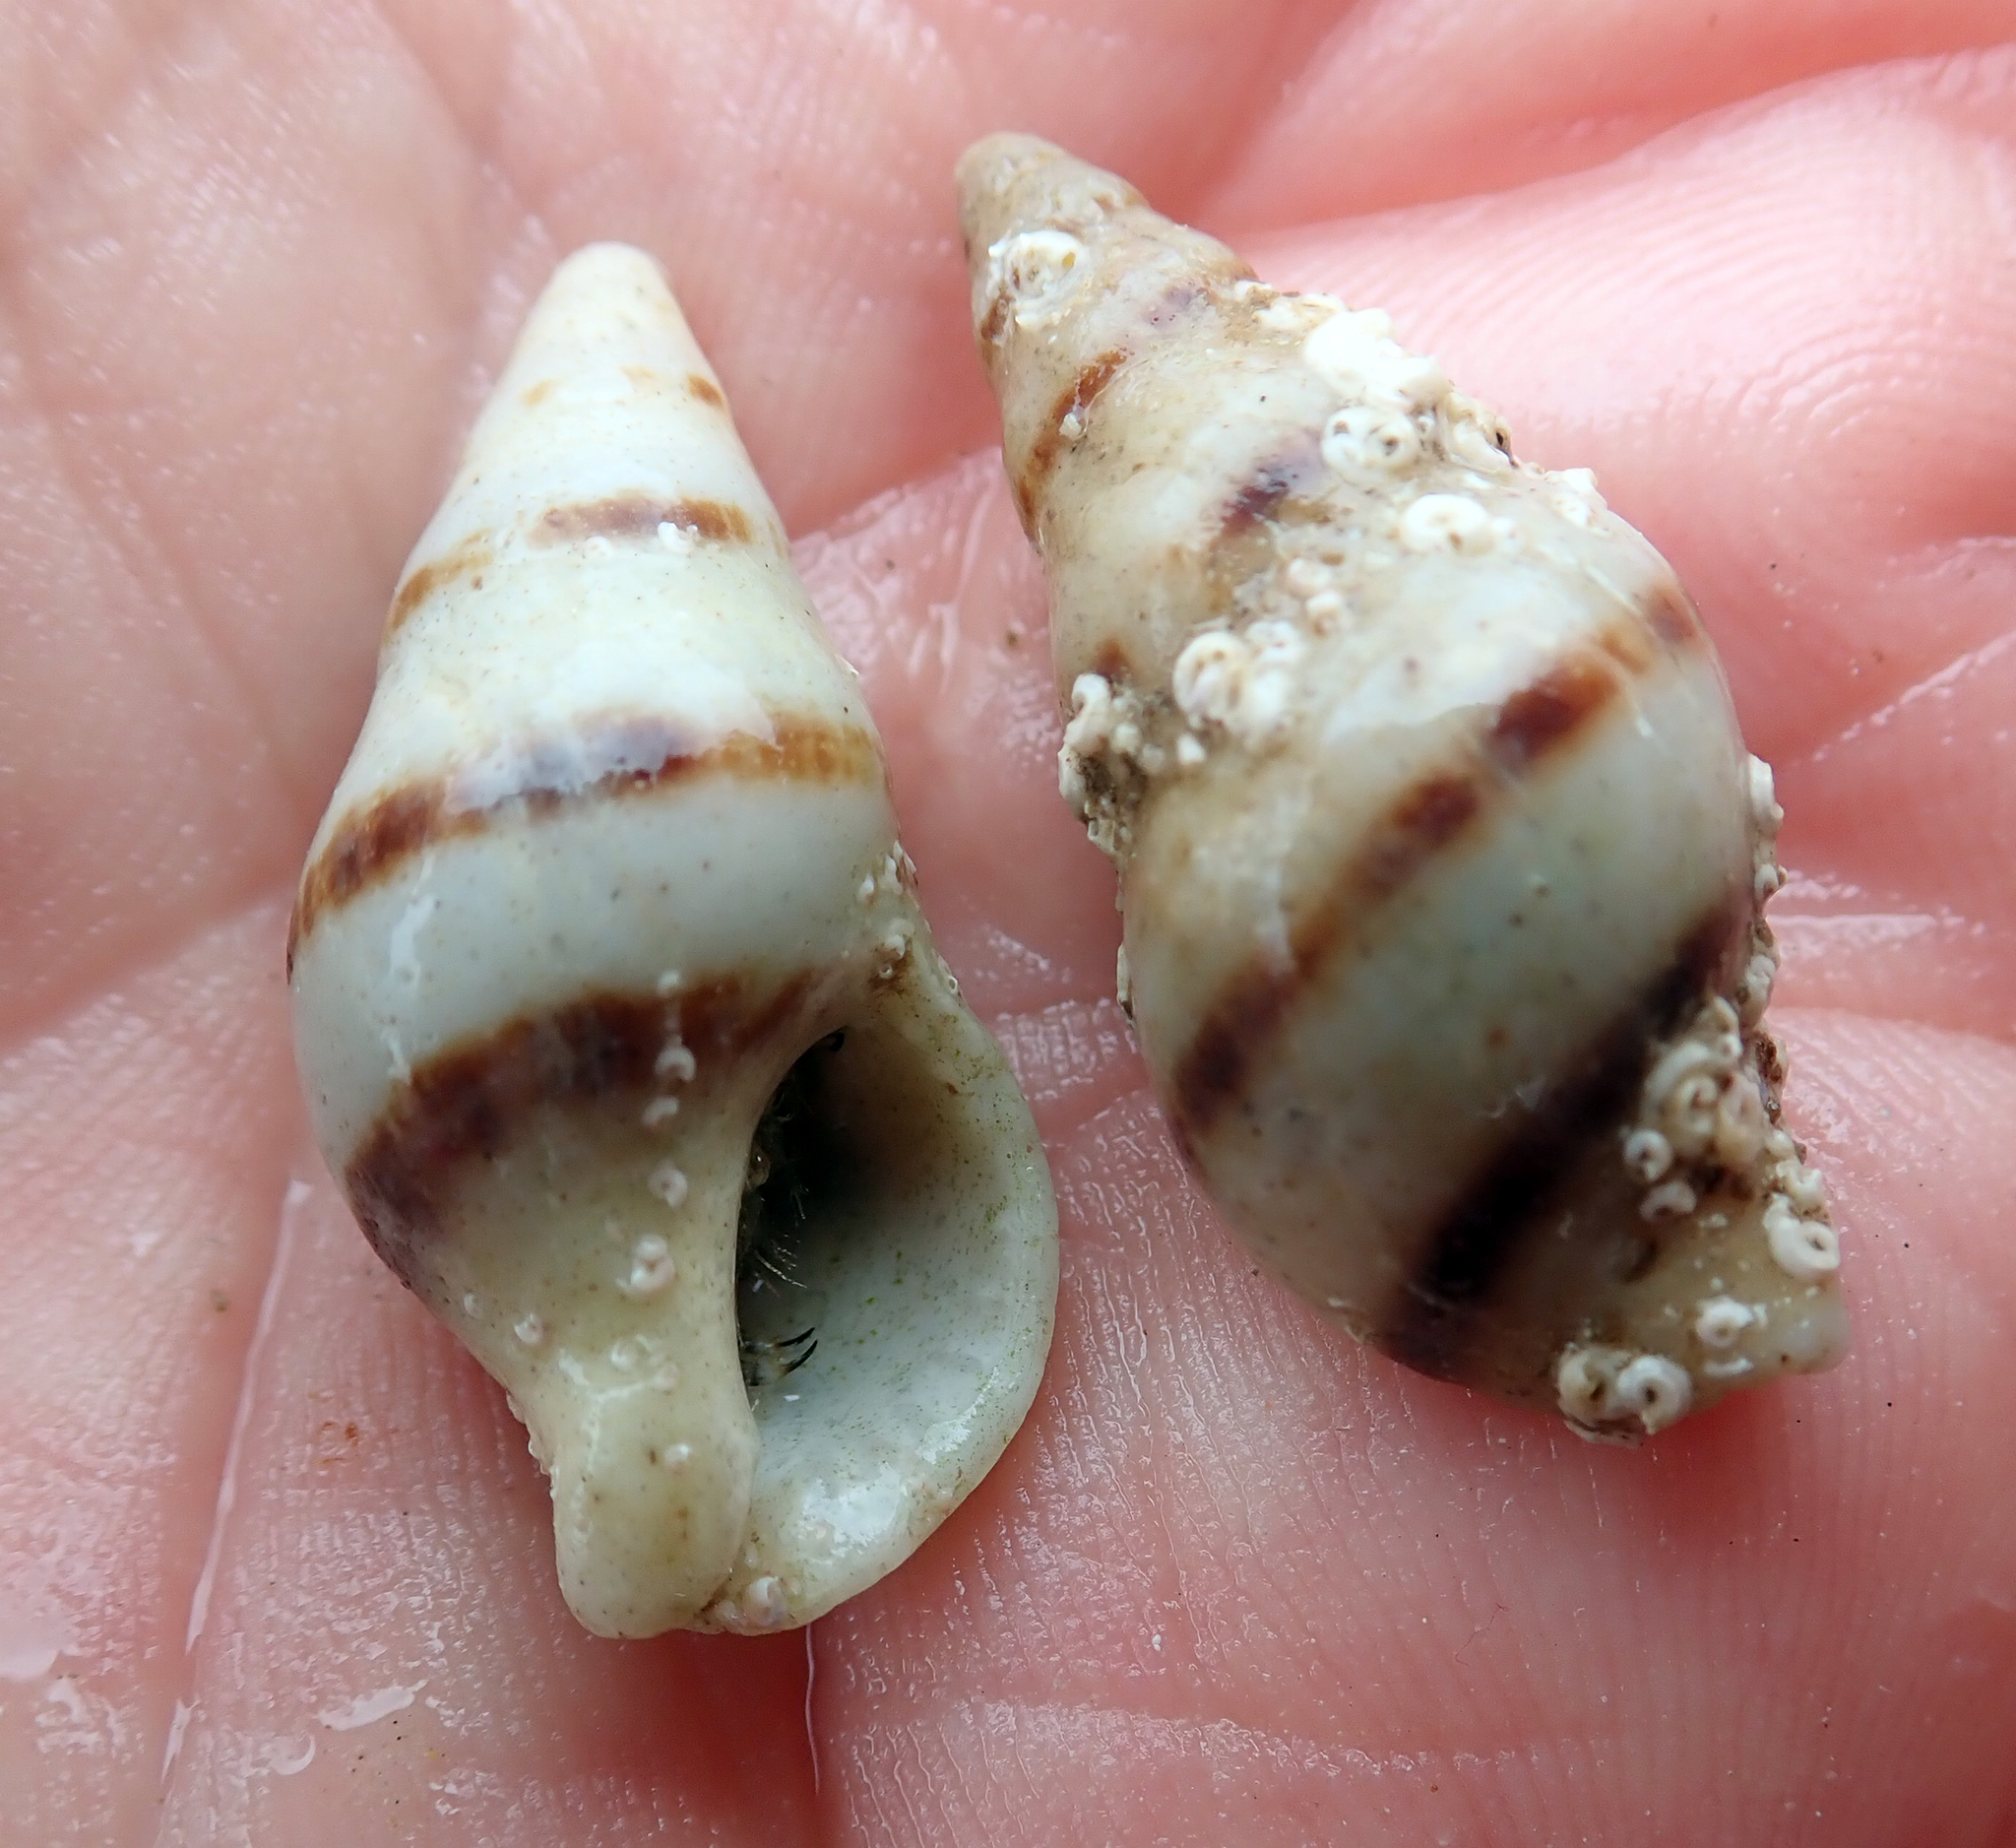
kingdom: Animalia
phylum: Mollusca
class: Gastropoda
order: Neogastropoda
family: Tudiclidae
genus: Buccinulum
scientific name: Buccinulum vittatum
